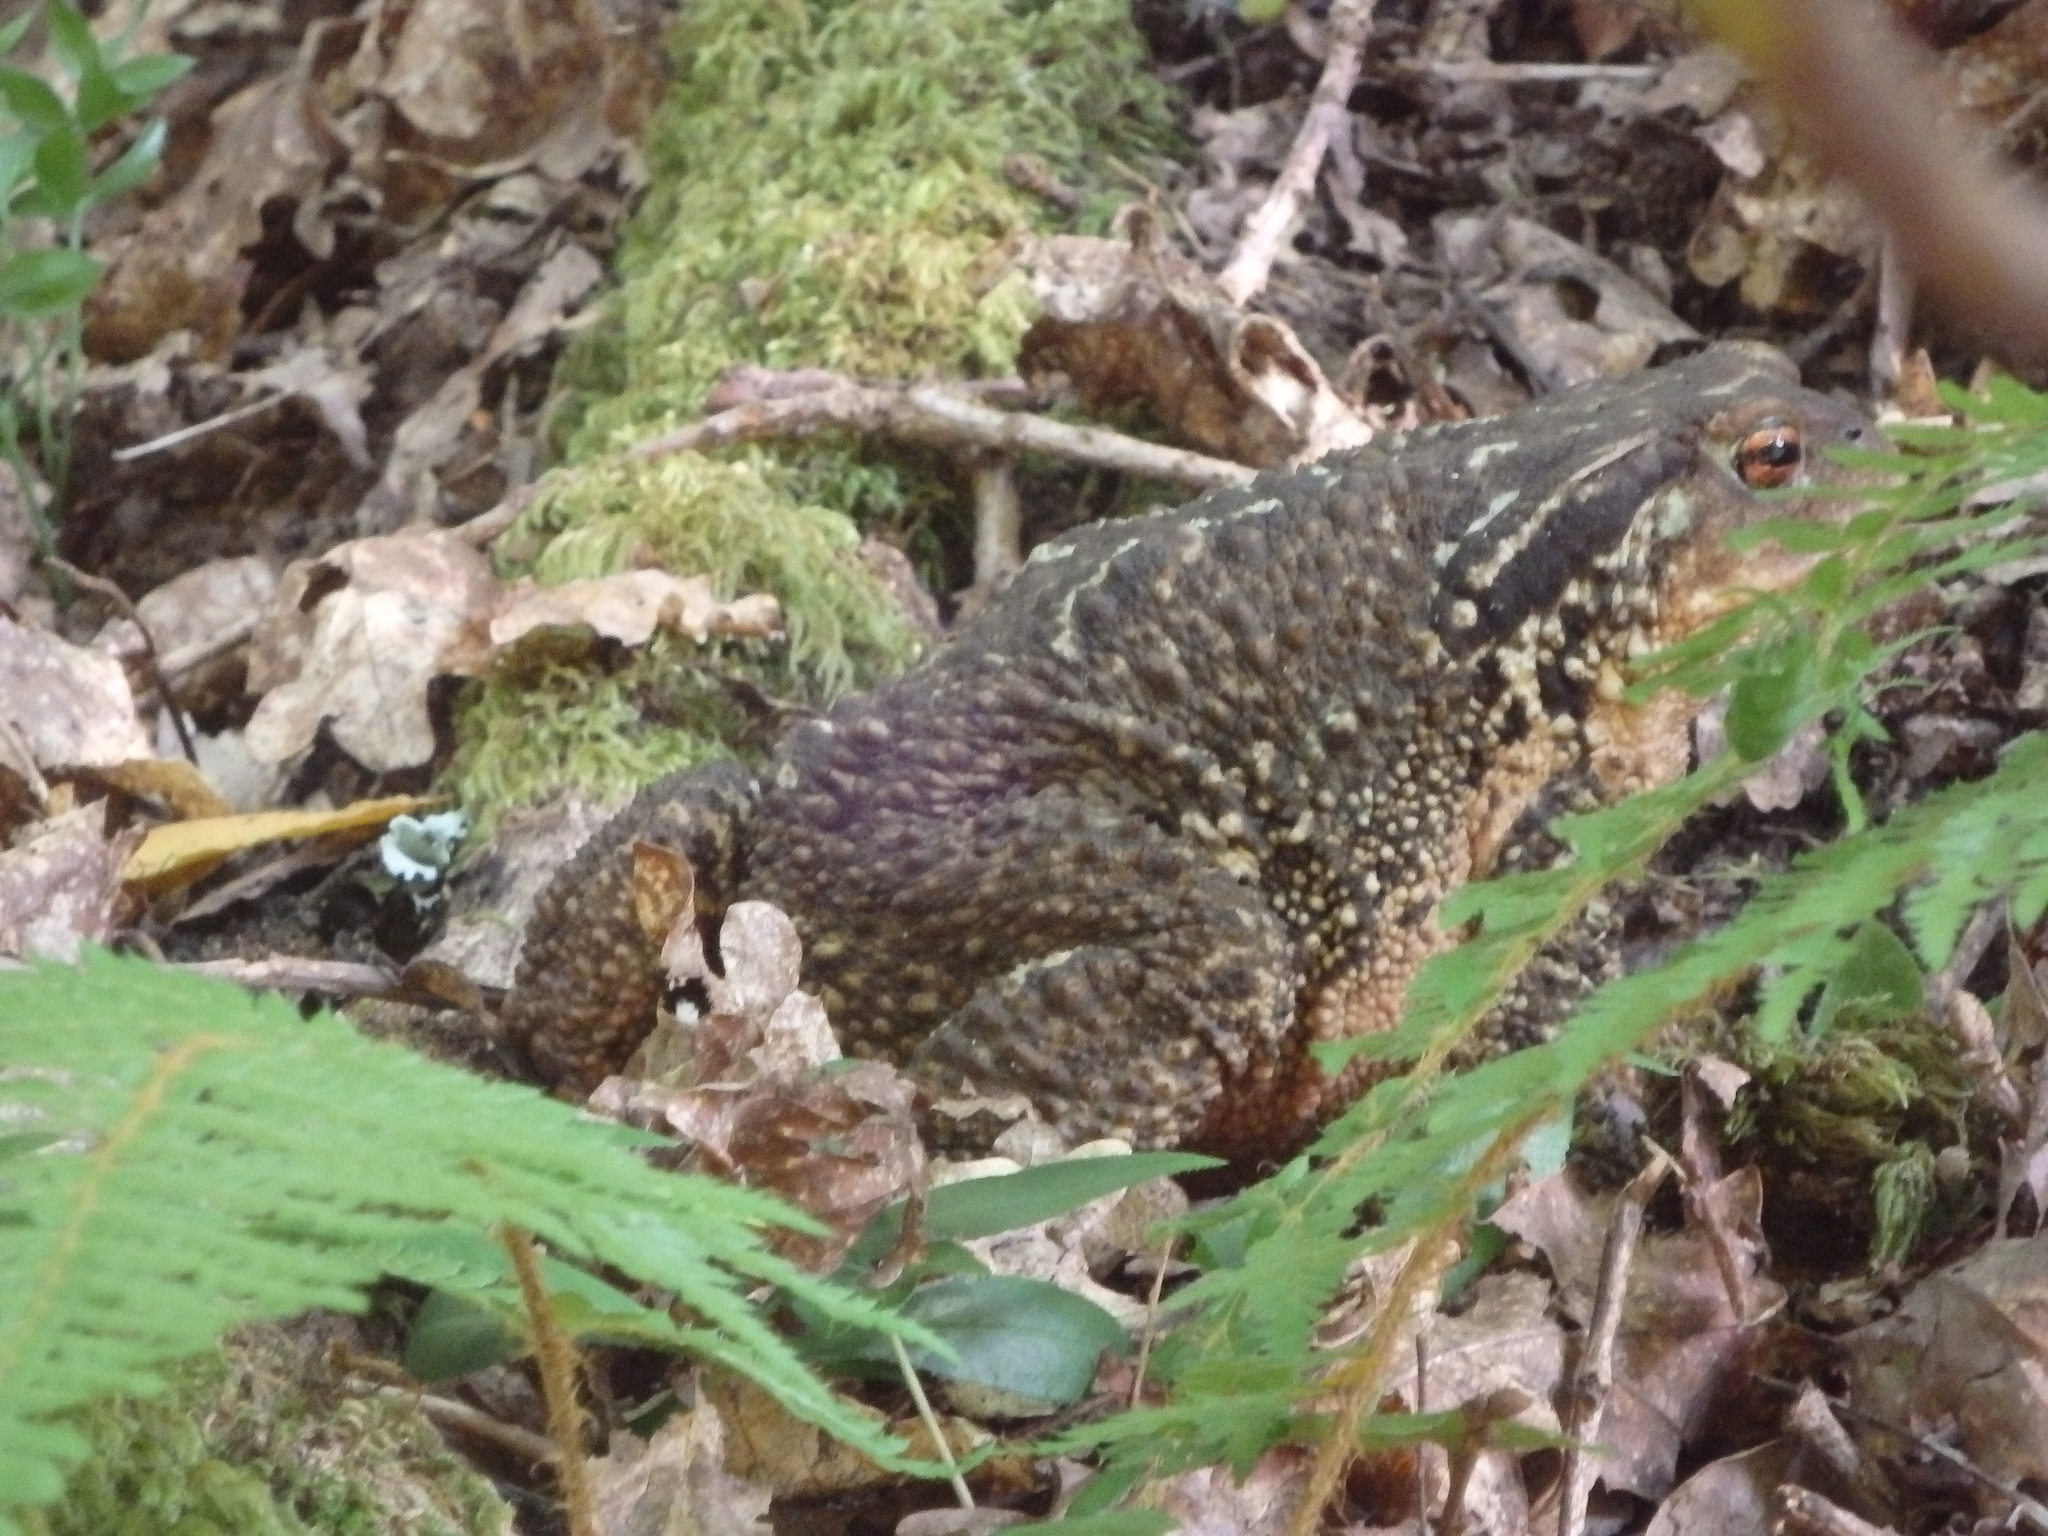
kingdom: Animalia
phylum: Chordata
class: Amphibia
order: Anura
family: Bufonidae
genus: Bufo
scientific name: Bufo spinosus
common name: Western common toad
